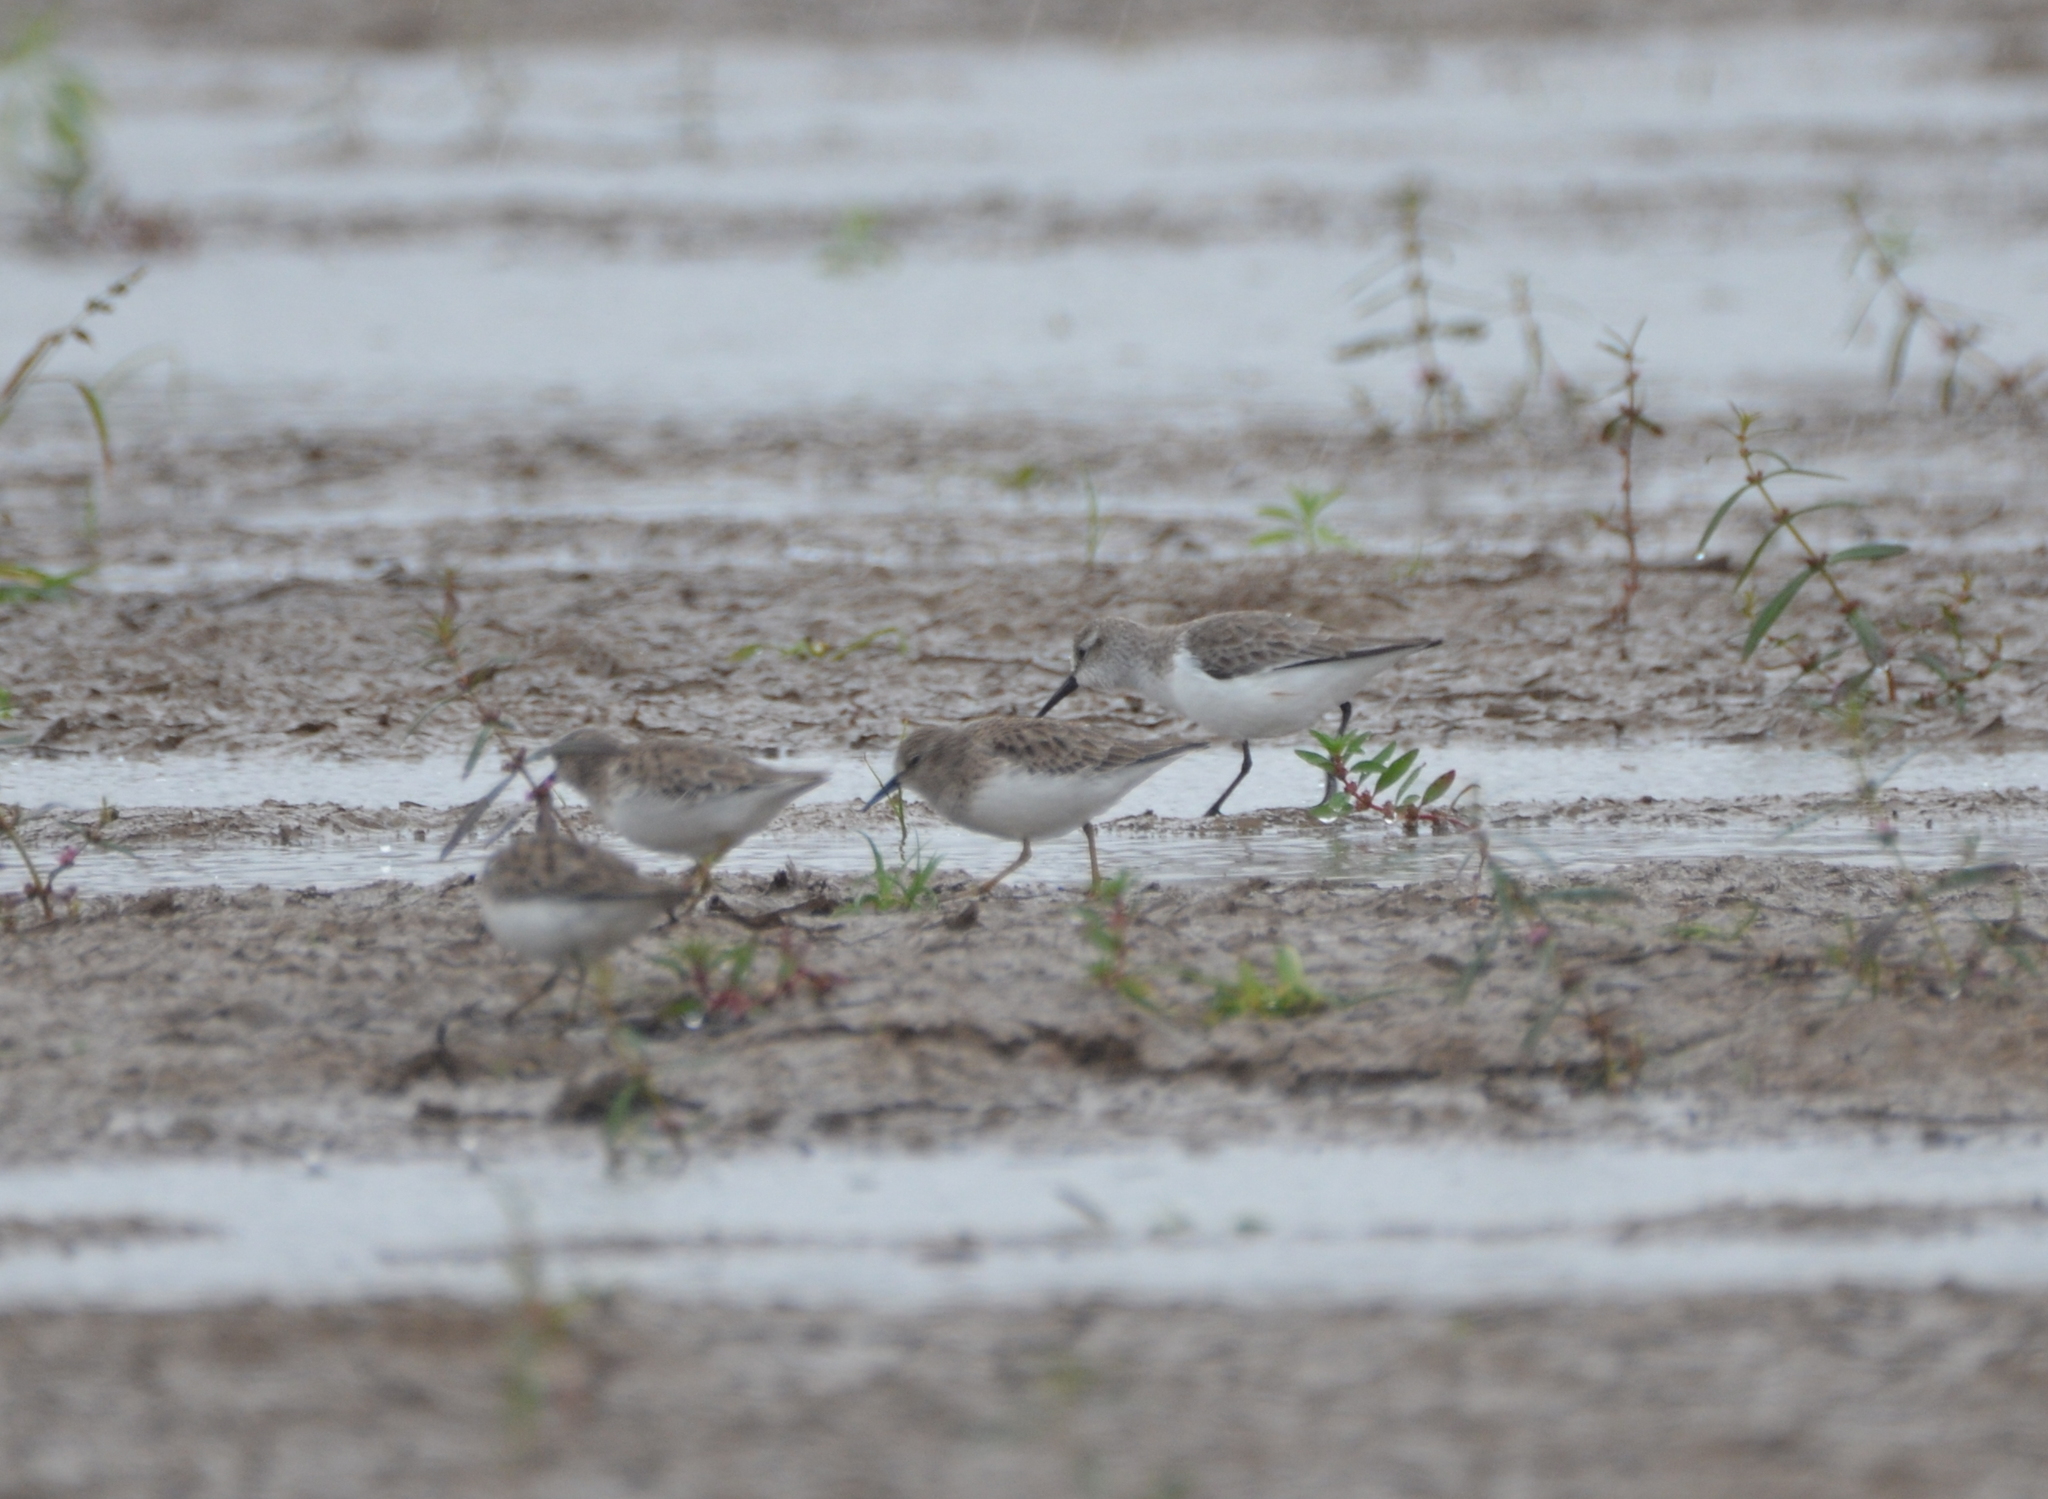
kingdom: Animalia
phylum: Chordata
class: Aves
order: Charadriiformes
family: Scolopacidae
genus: Calidris
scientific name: Calidris mauri
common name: Western sandpiper
